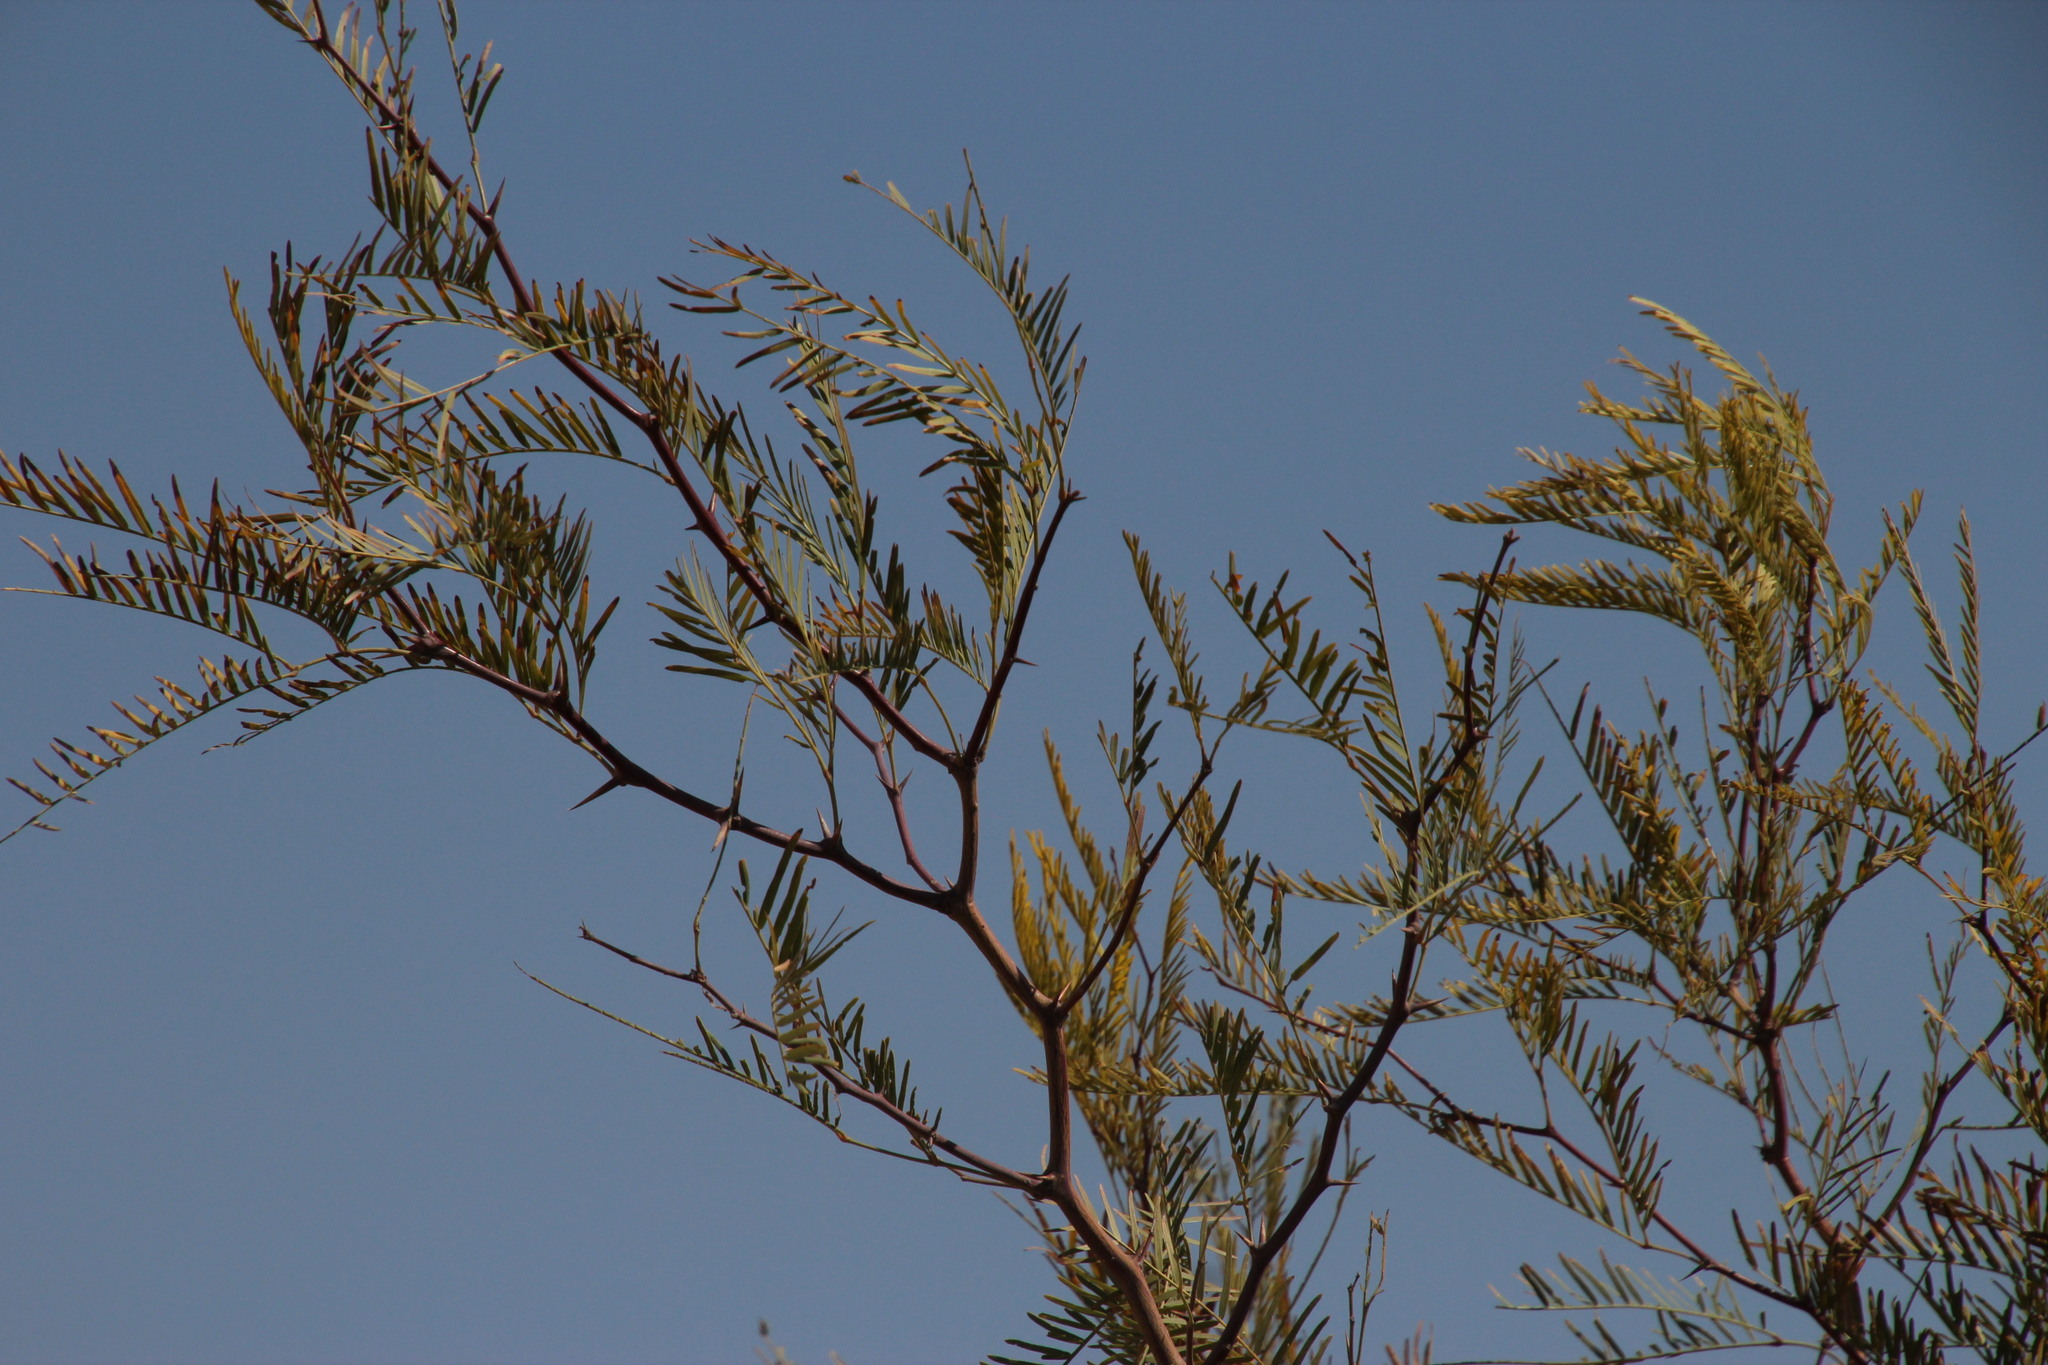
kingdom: Plantae
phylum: Tracheophyta
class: Magnoliopsida
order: Fabales
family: Fabaceae
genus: Prosopis
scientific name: Prosopis glandulosa
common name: Honey mesquite
